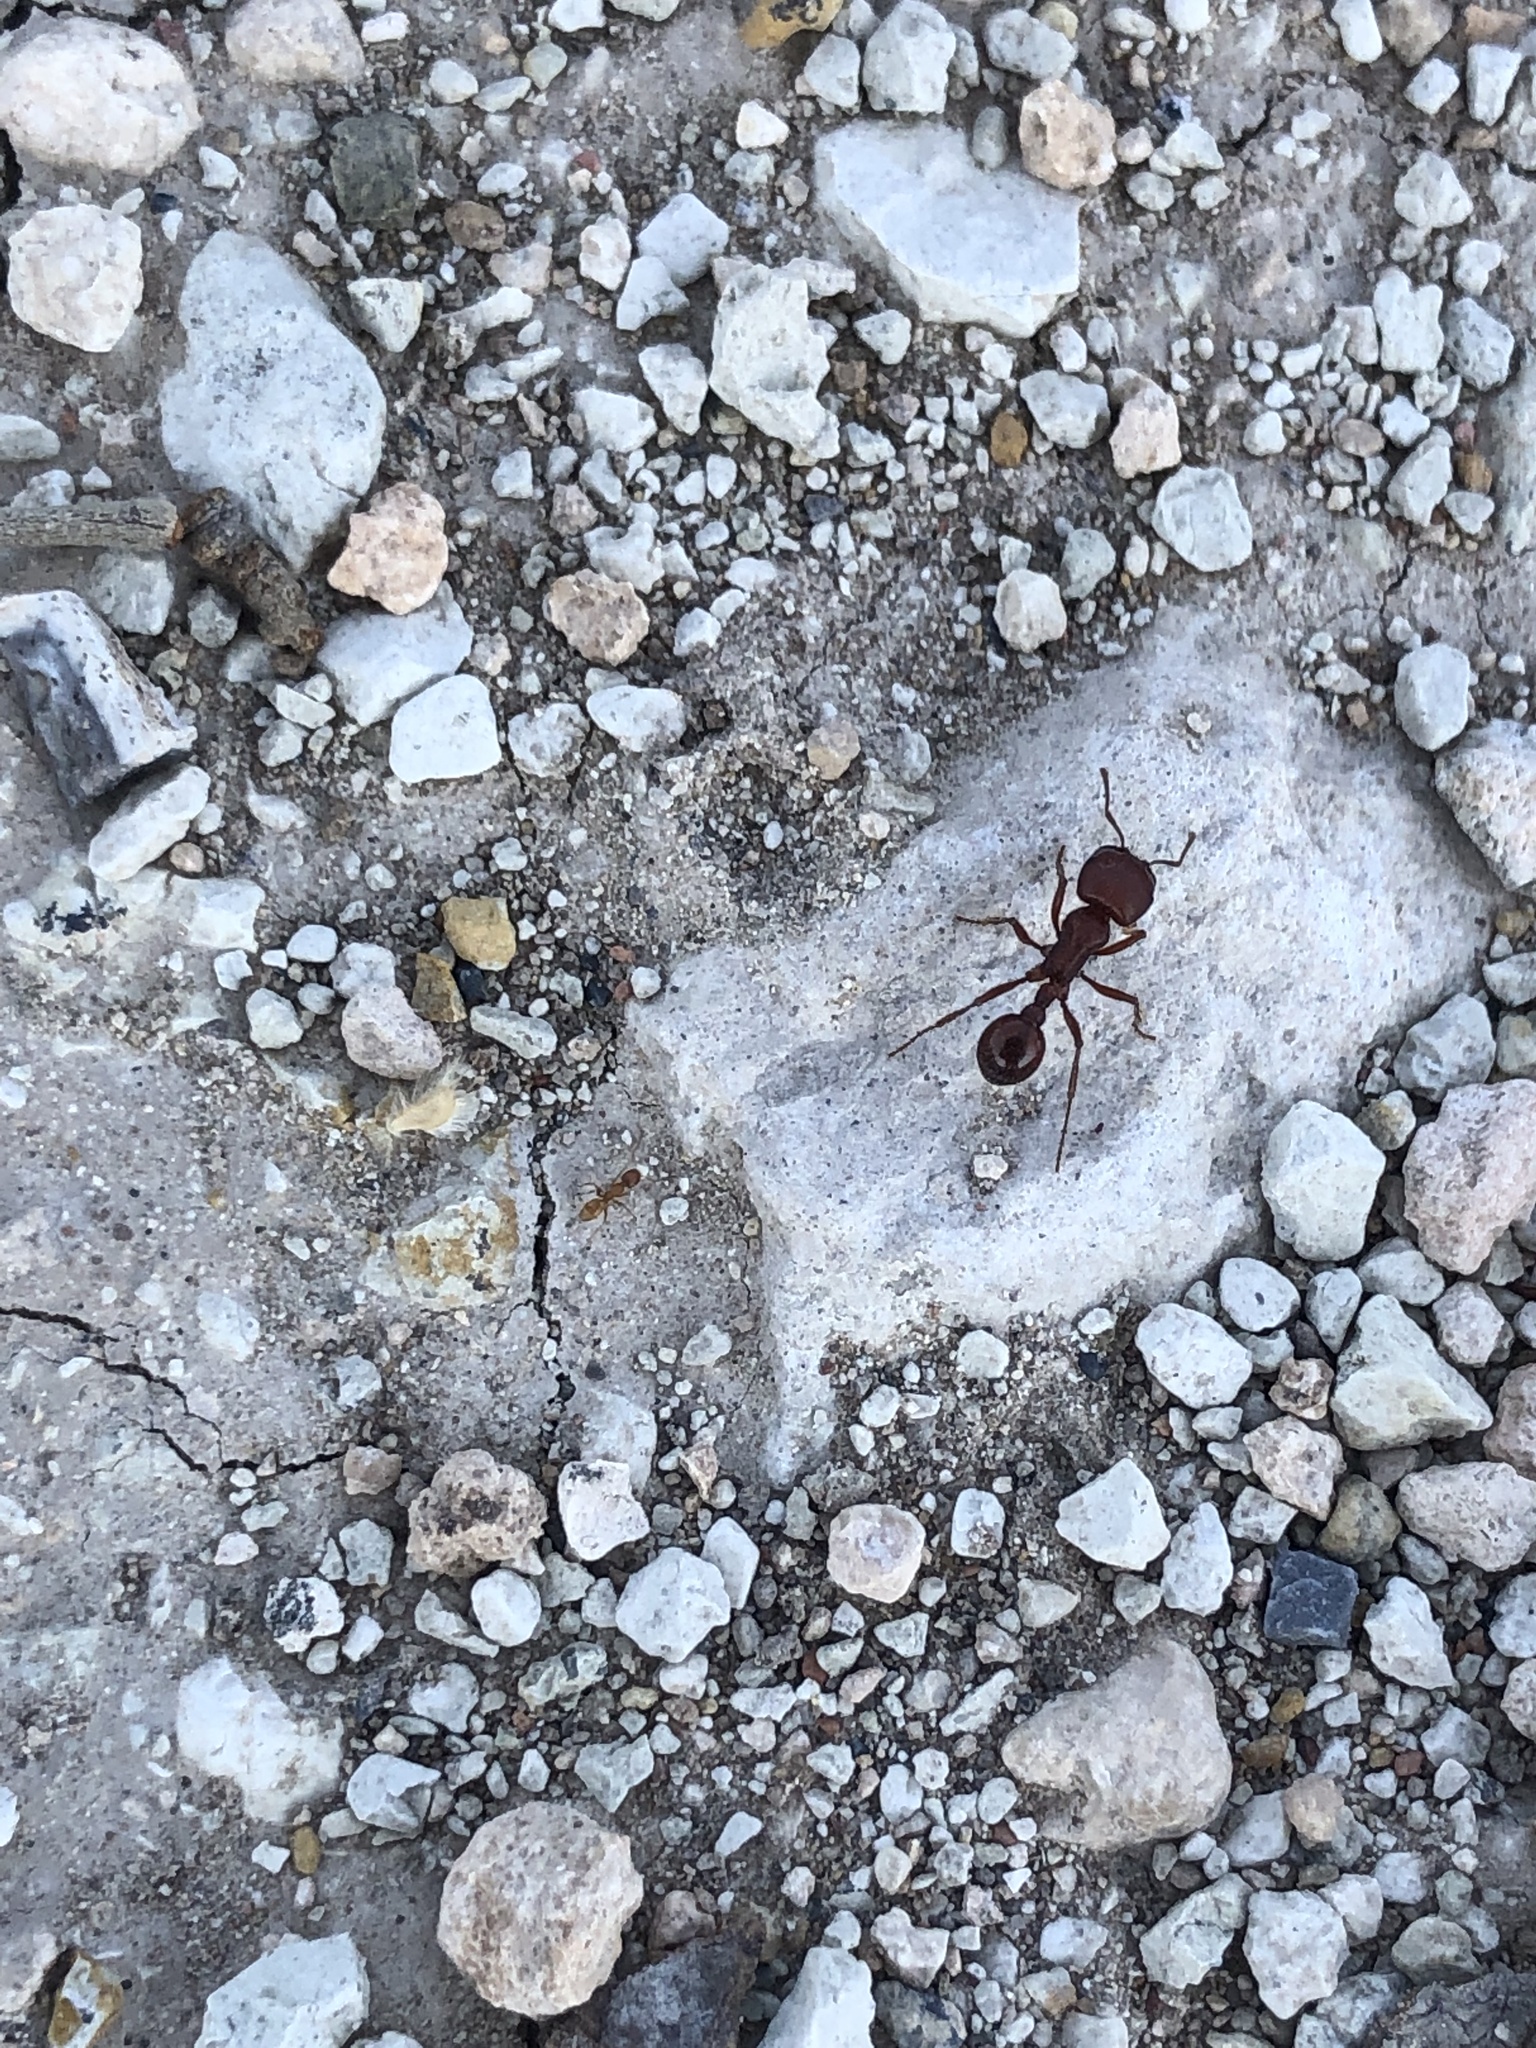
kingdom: Animalia
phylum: Arthropoda
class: Insecta
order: Hymenoptera
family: Formicidae
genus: Pogonomyrmex
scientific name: Pogonomyrmex barbatus
